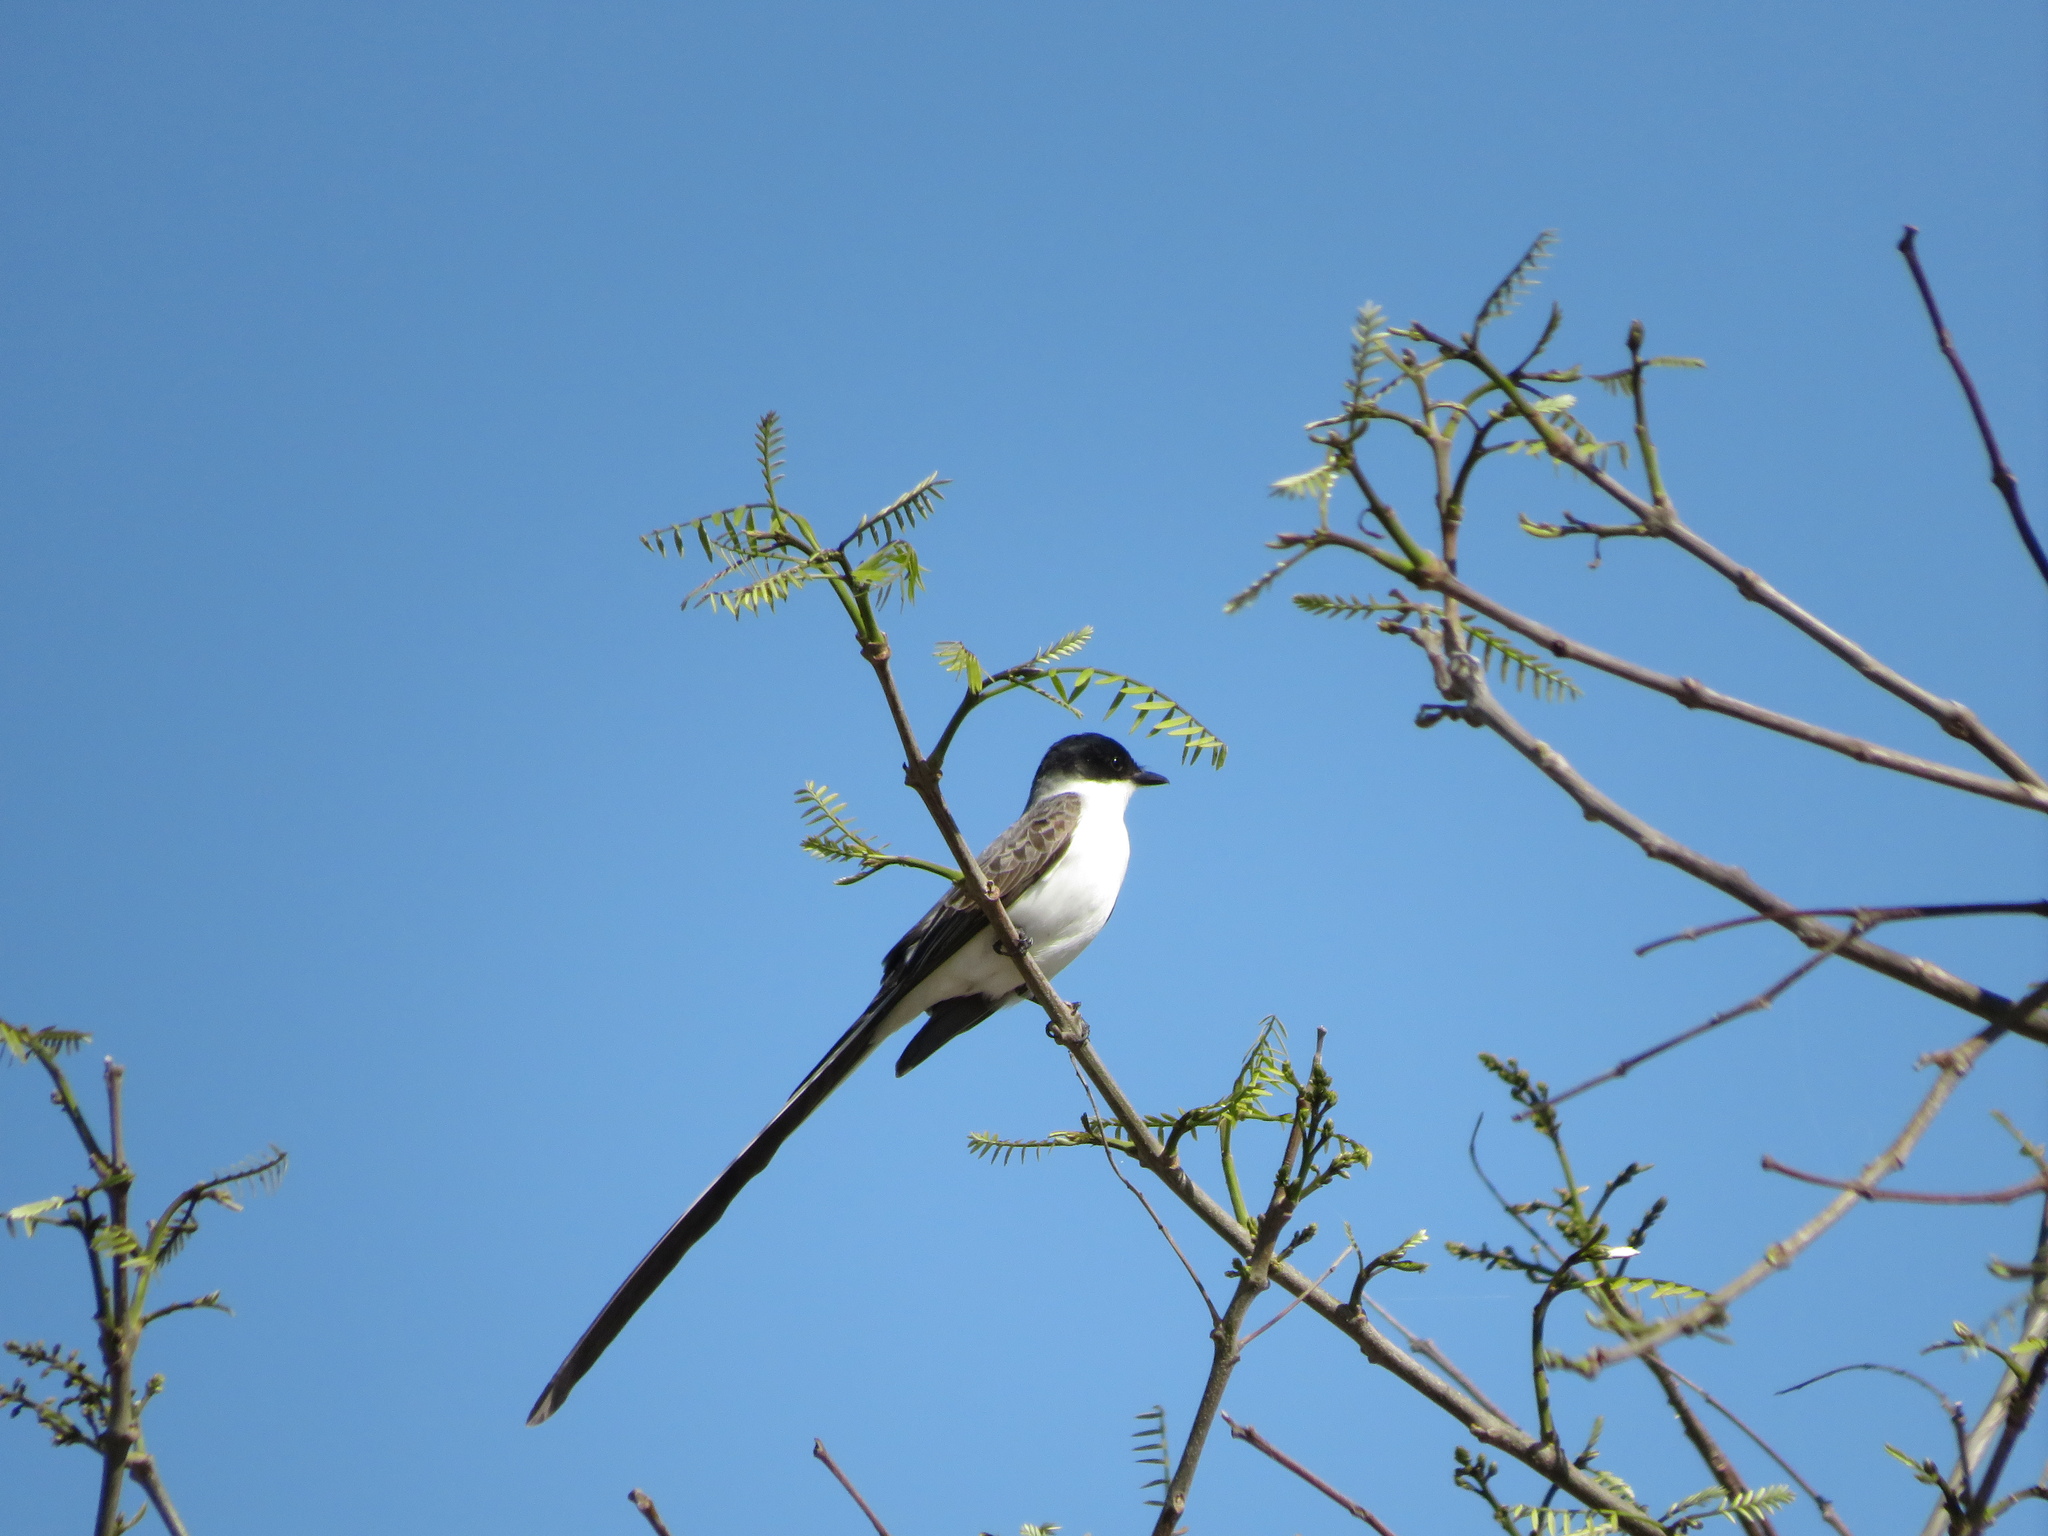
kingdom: Animalia
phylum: Chordata
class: Aves
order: Passeriformes
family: Tyrannidae
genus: Tyrannus
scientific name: Tyrannus savana
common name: Fork-tailed flycatcher
